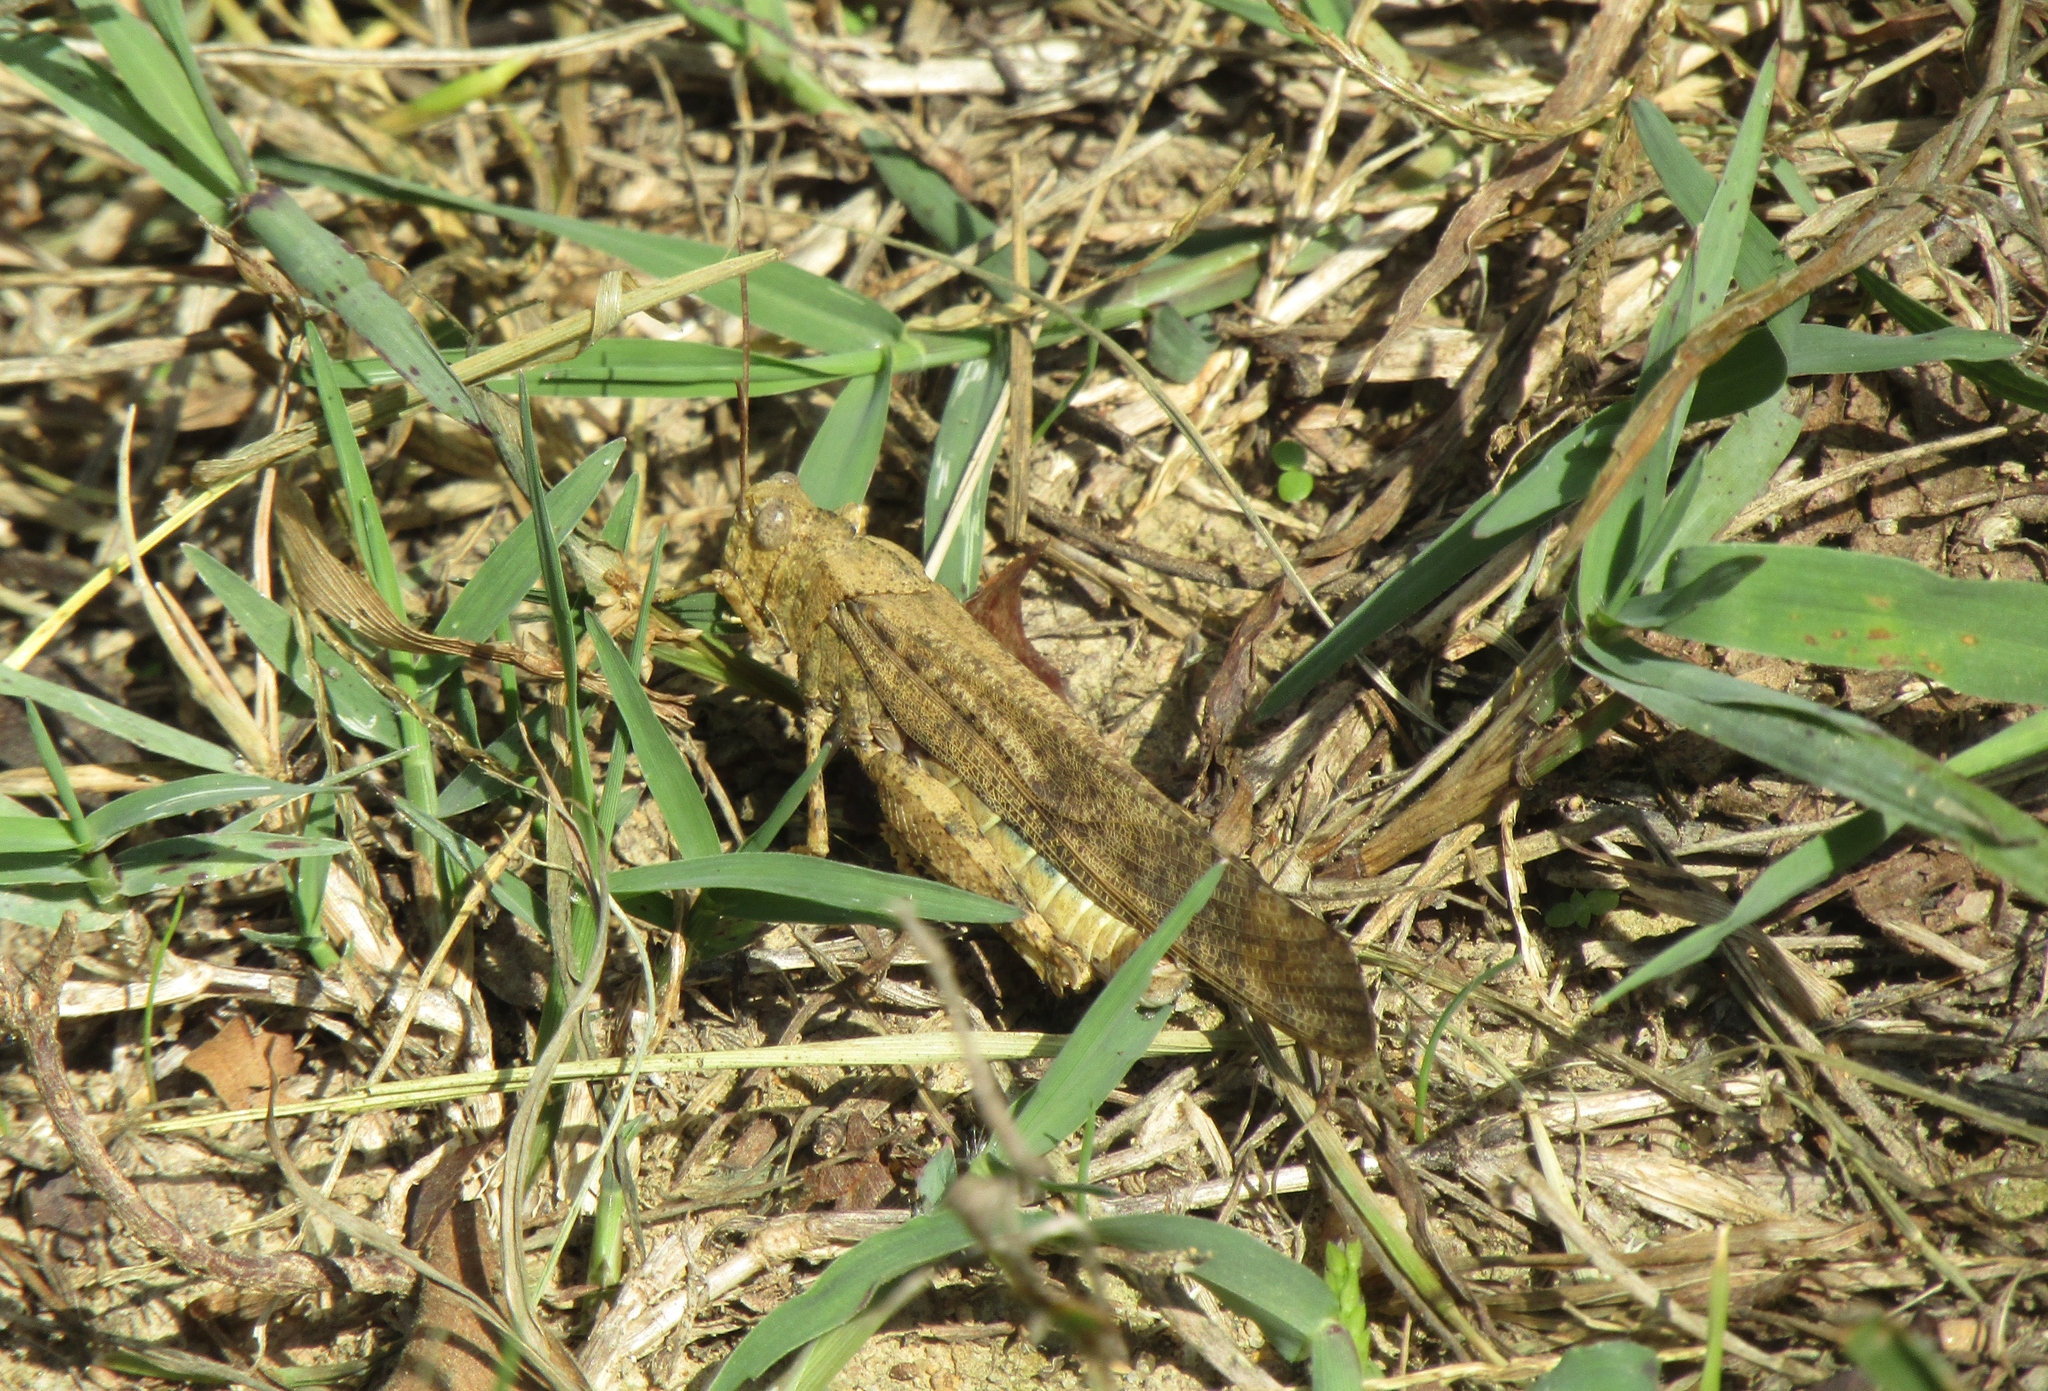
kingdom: Animalia
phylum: Arthropoda
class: Insecta
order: Orthoptera
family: Acrididae
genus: Dissosteira
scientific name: Dissosteira carolina
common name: Carolina grasshopper
